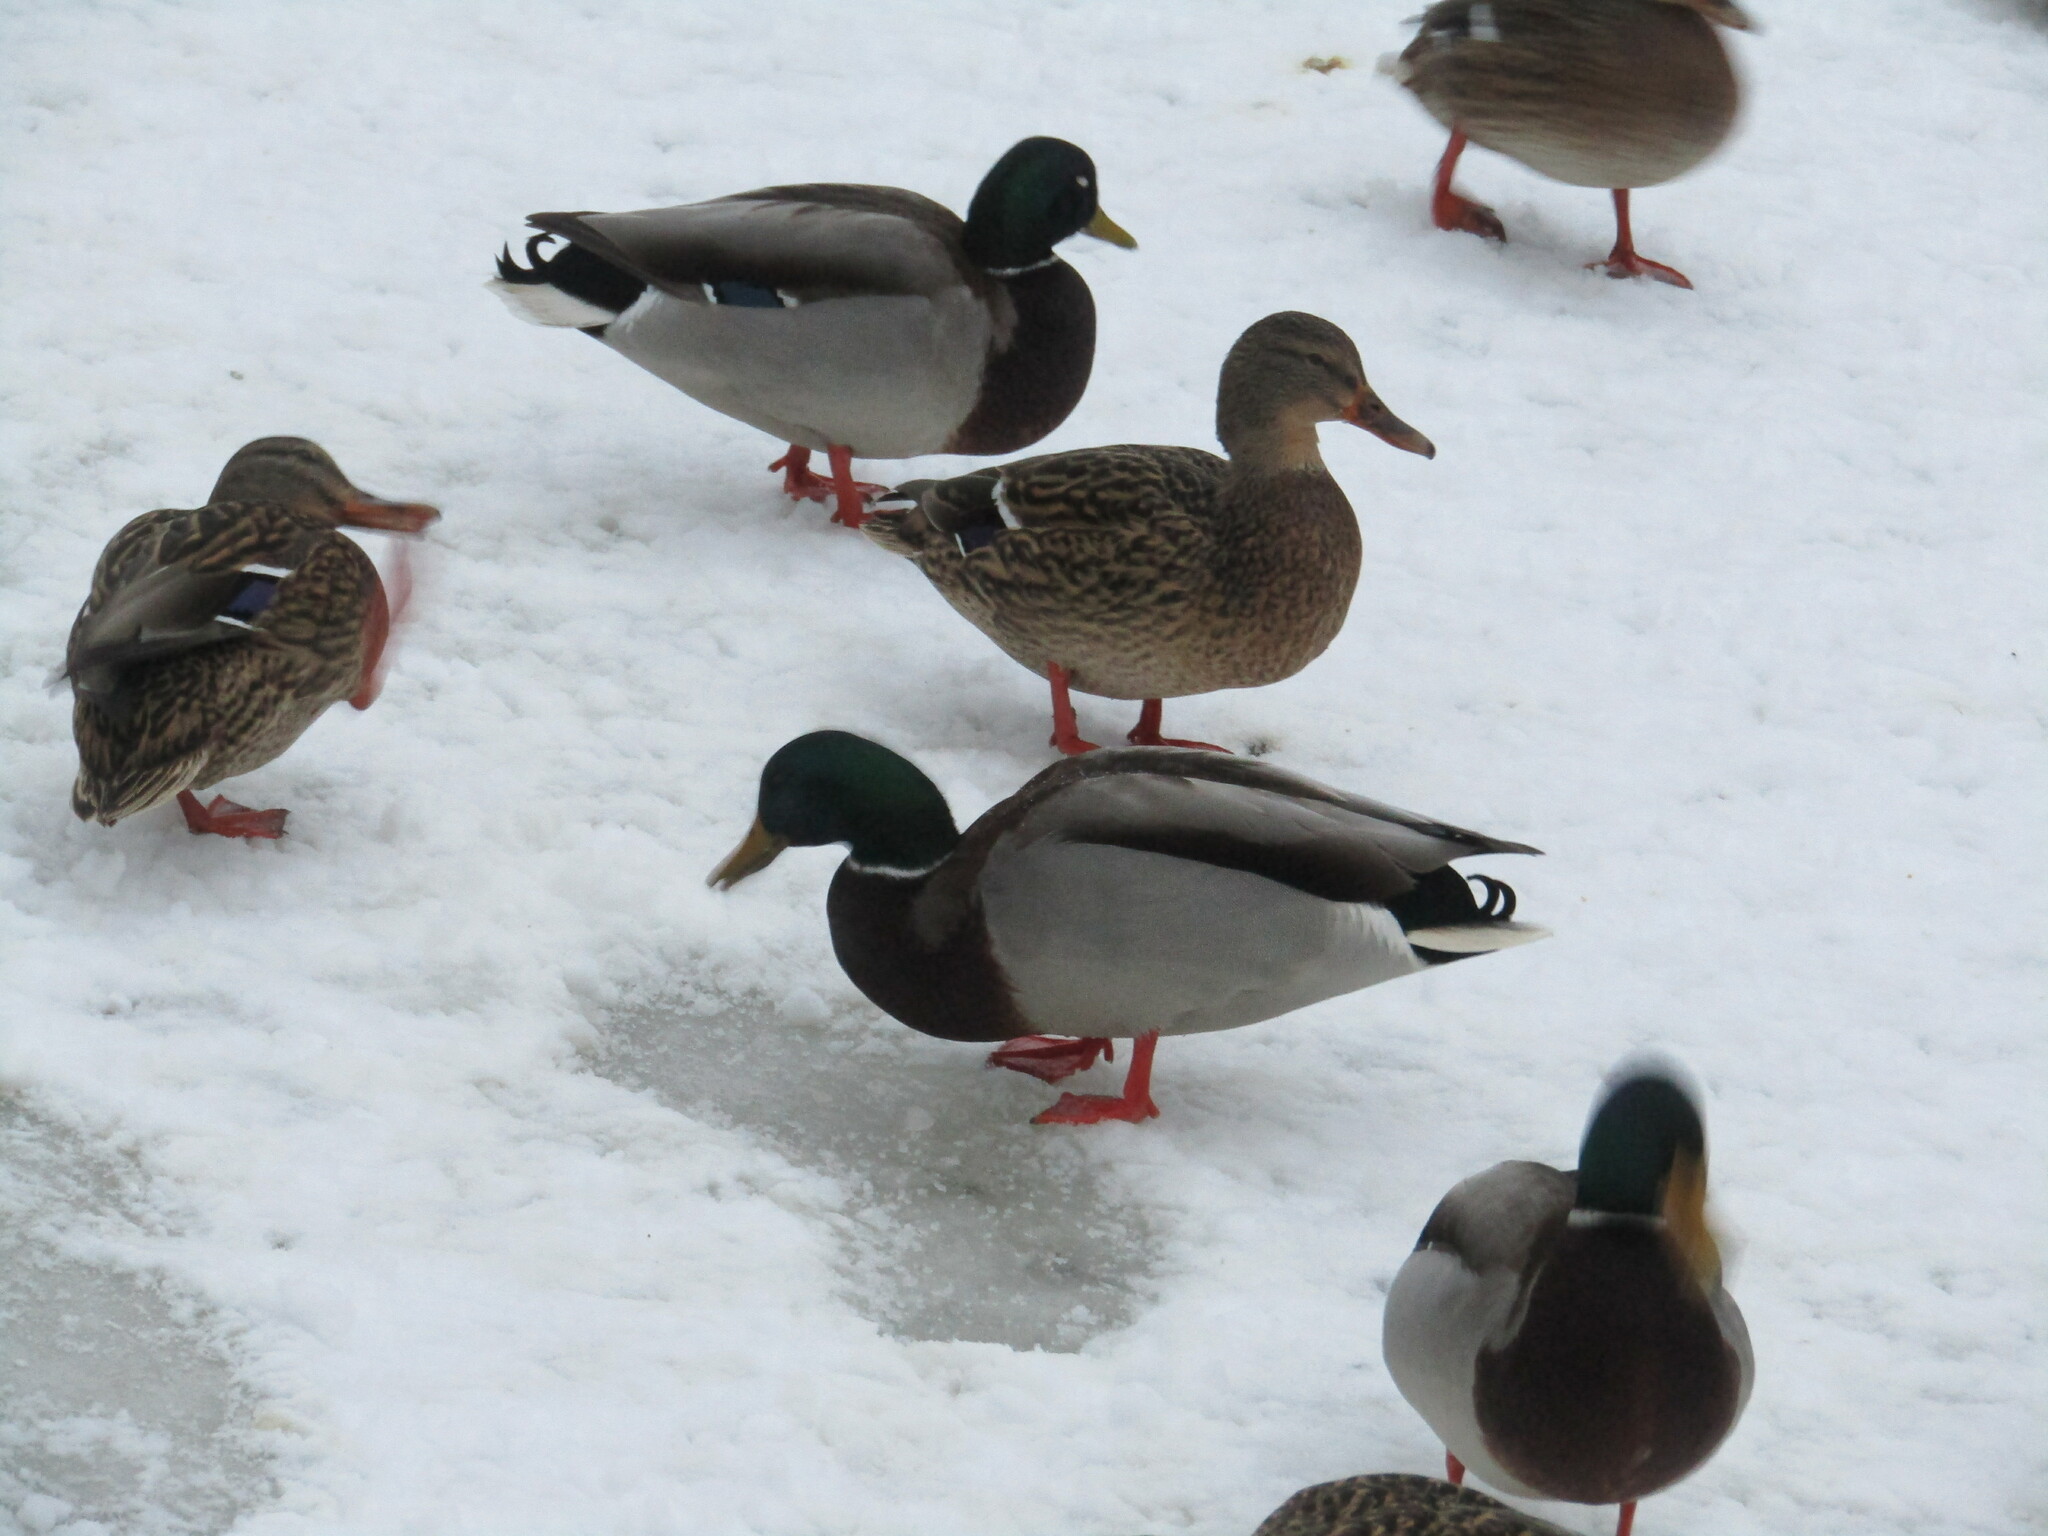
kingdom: Animalia
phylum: Chordata
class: Aves
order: Anseriformes
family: Anatidae
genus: Anas
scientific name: Anas platyrhynchos
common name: Mallard
